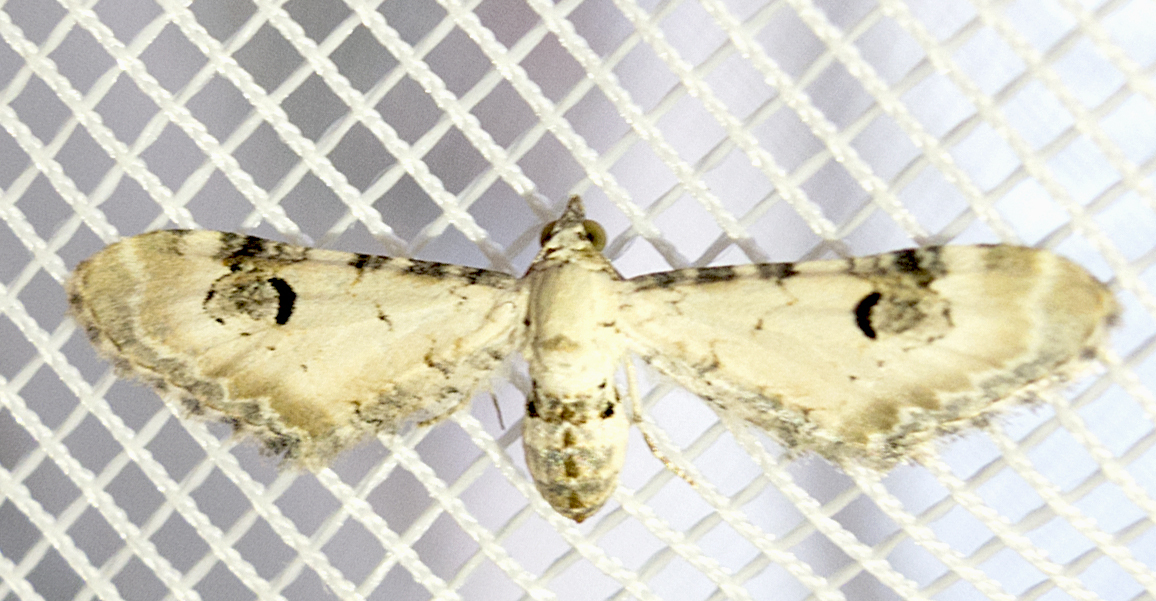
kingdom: Animalia
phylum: Arthropoda
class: Insecta
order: Lepidoptera
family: Geometridae
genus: Eupithecia
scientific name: Eupithecia centaureata
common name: Lime-speck pug
